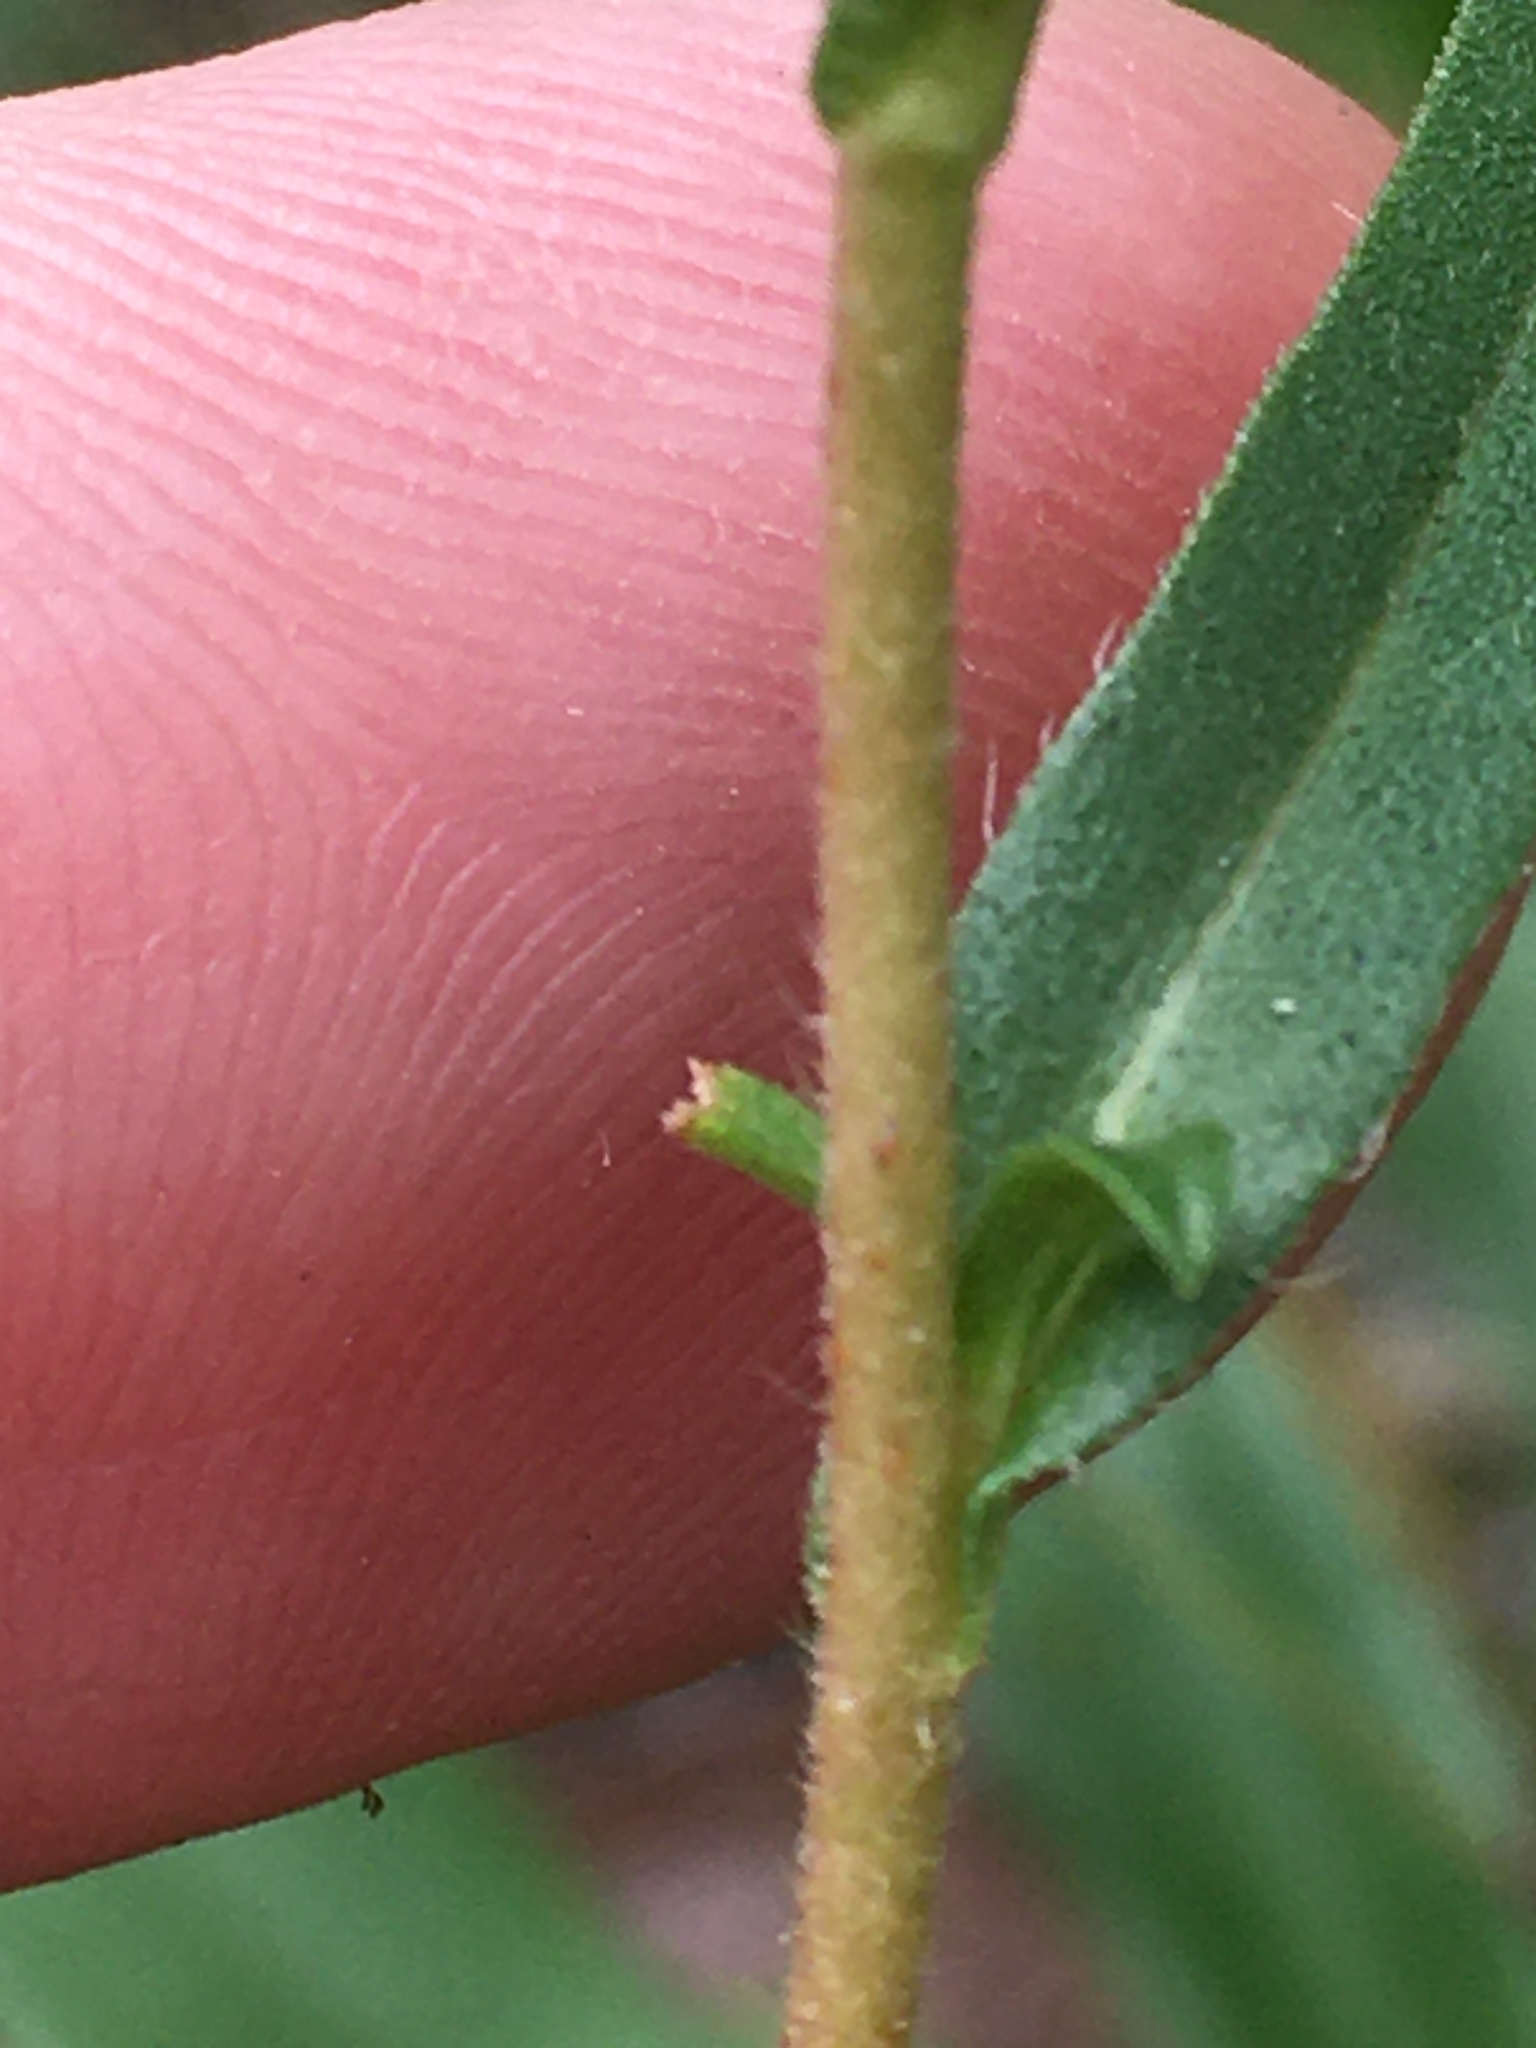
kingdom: Plantae
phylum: Tracheophyta
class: Magnoliopsida
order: Asterales
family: Asteraceae
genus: Eurybia
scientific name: Eurybia compacta
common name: Slender aster
